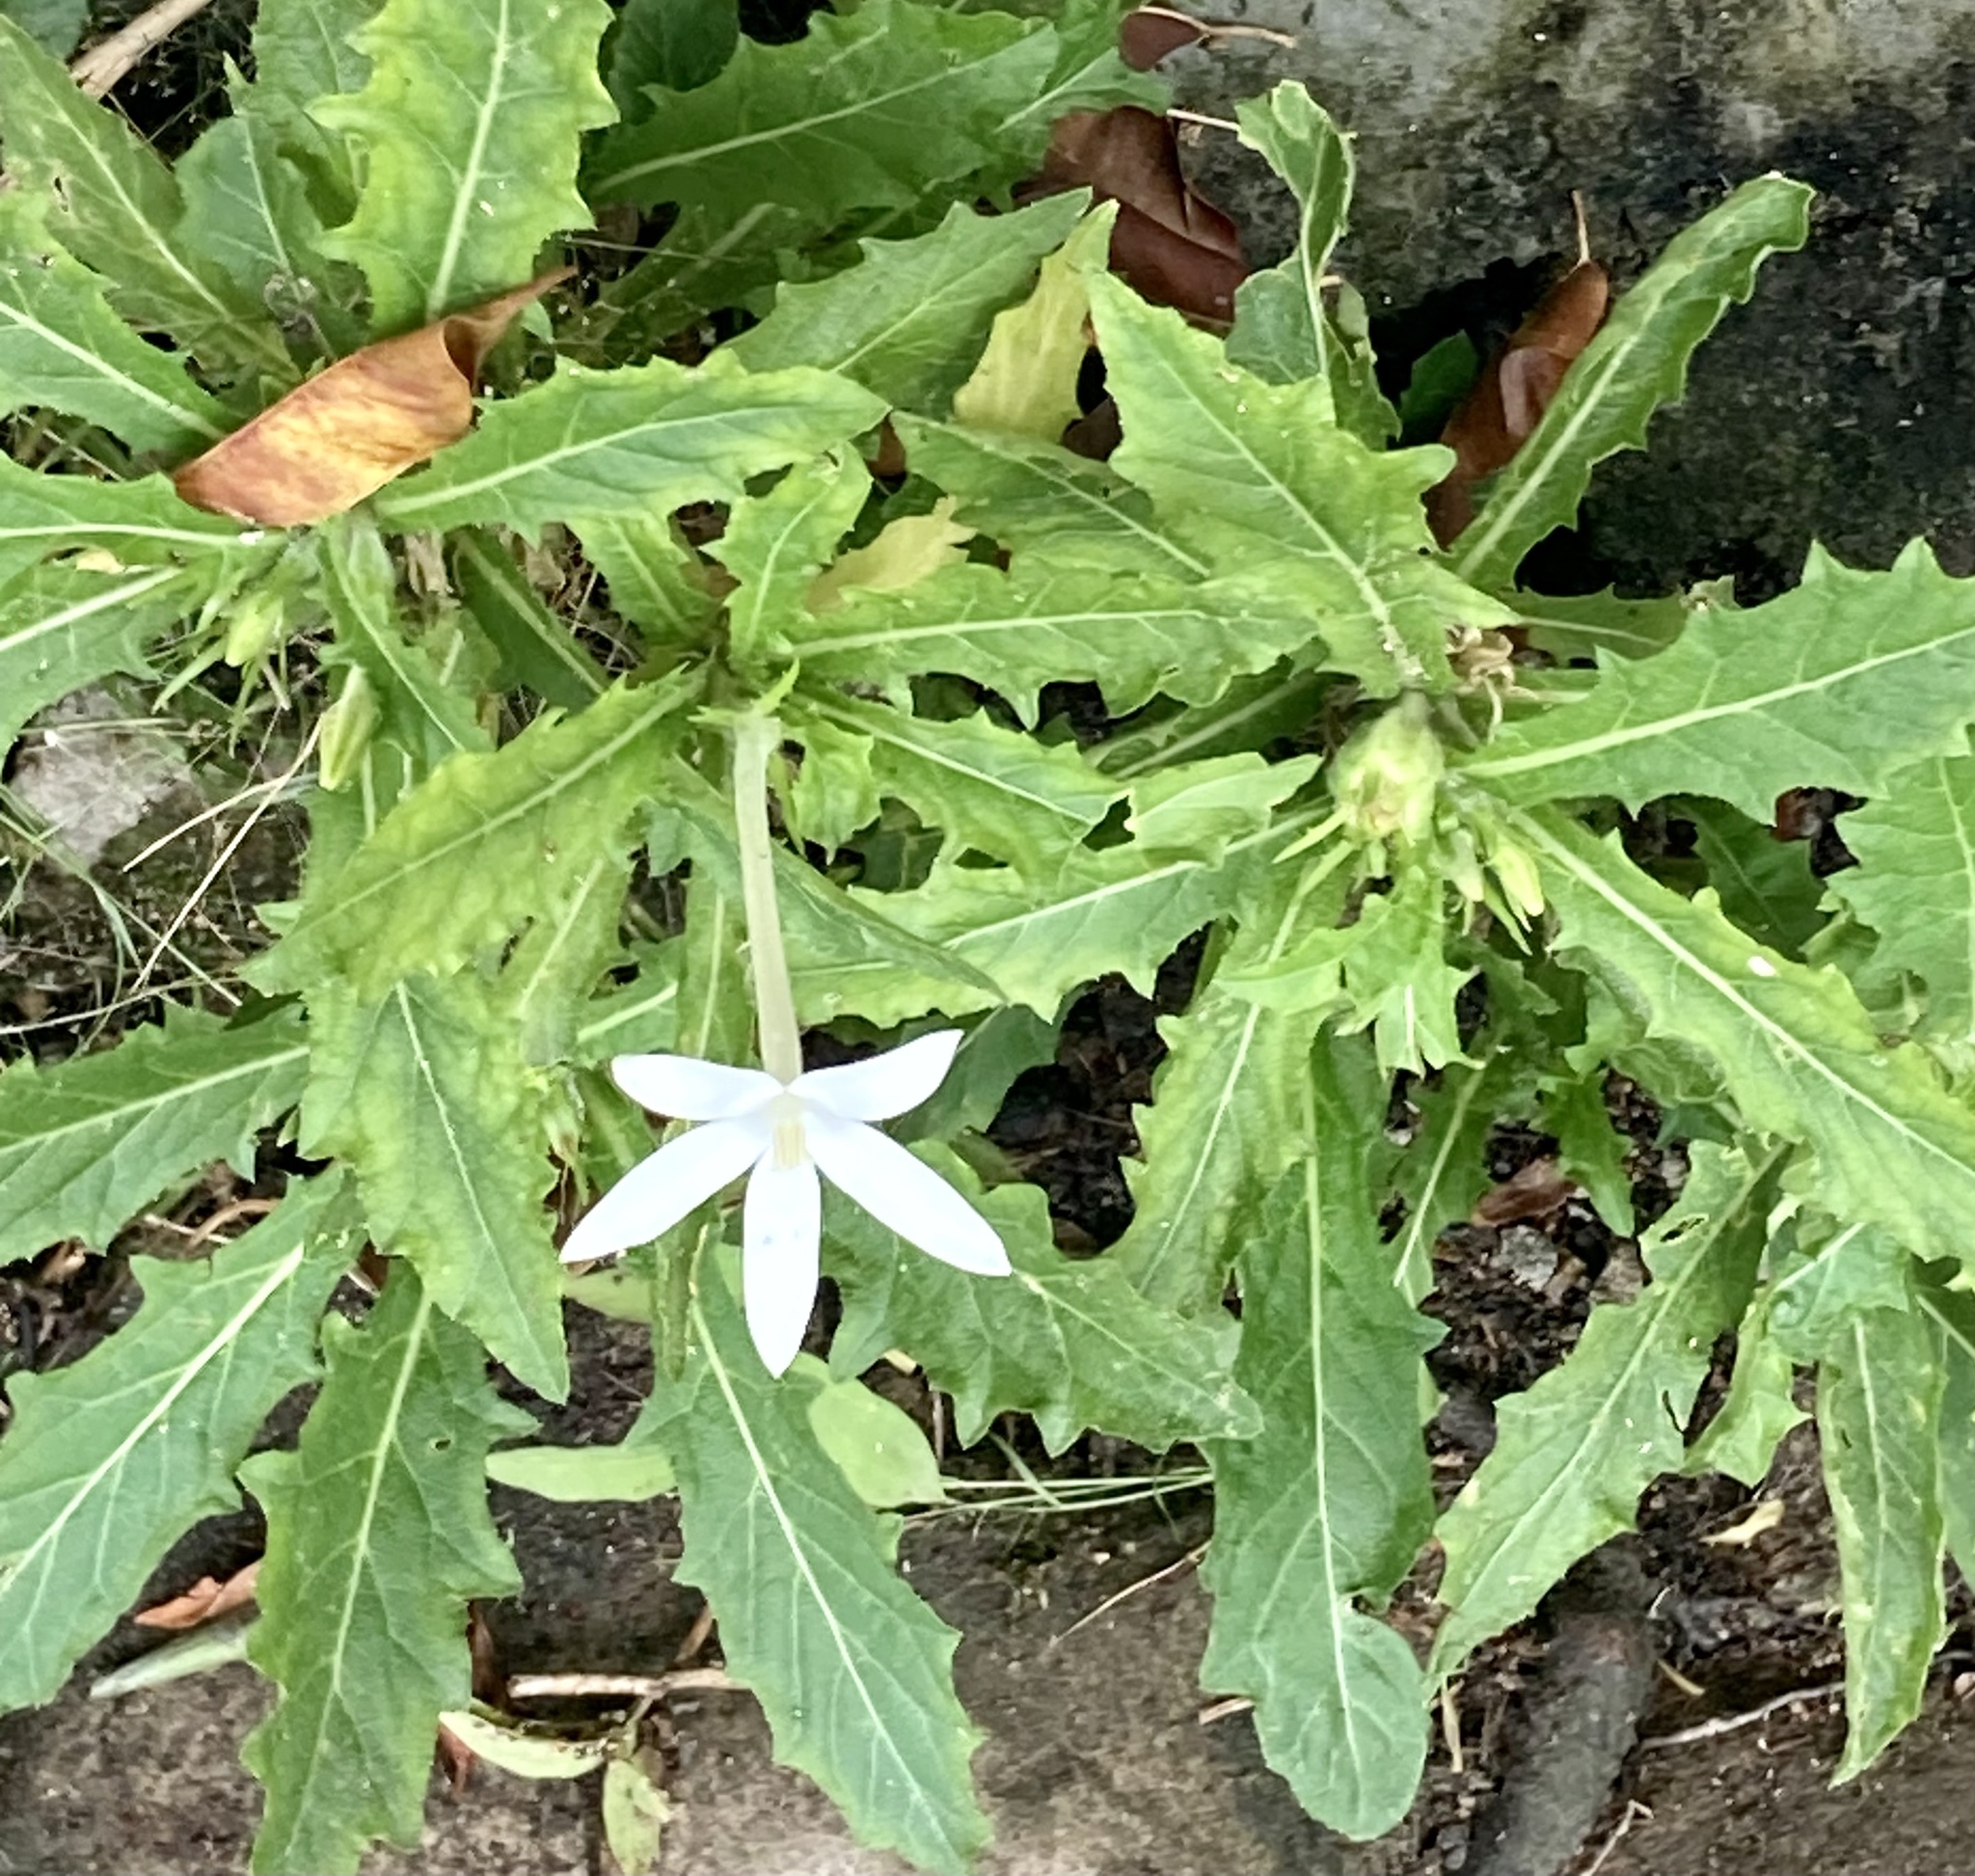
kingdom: Plantae
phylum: Tracheophyta
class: Magnoliopsida
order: Asterales
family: Campanulaceae
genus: Hippobroma
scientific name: Hippobroma longiflora
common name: Madamfate
